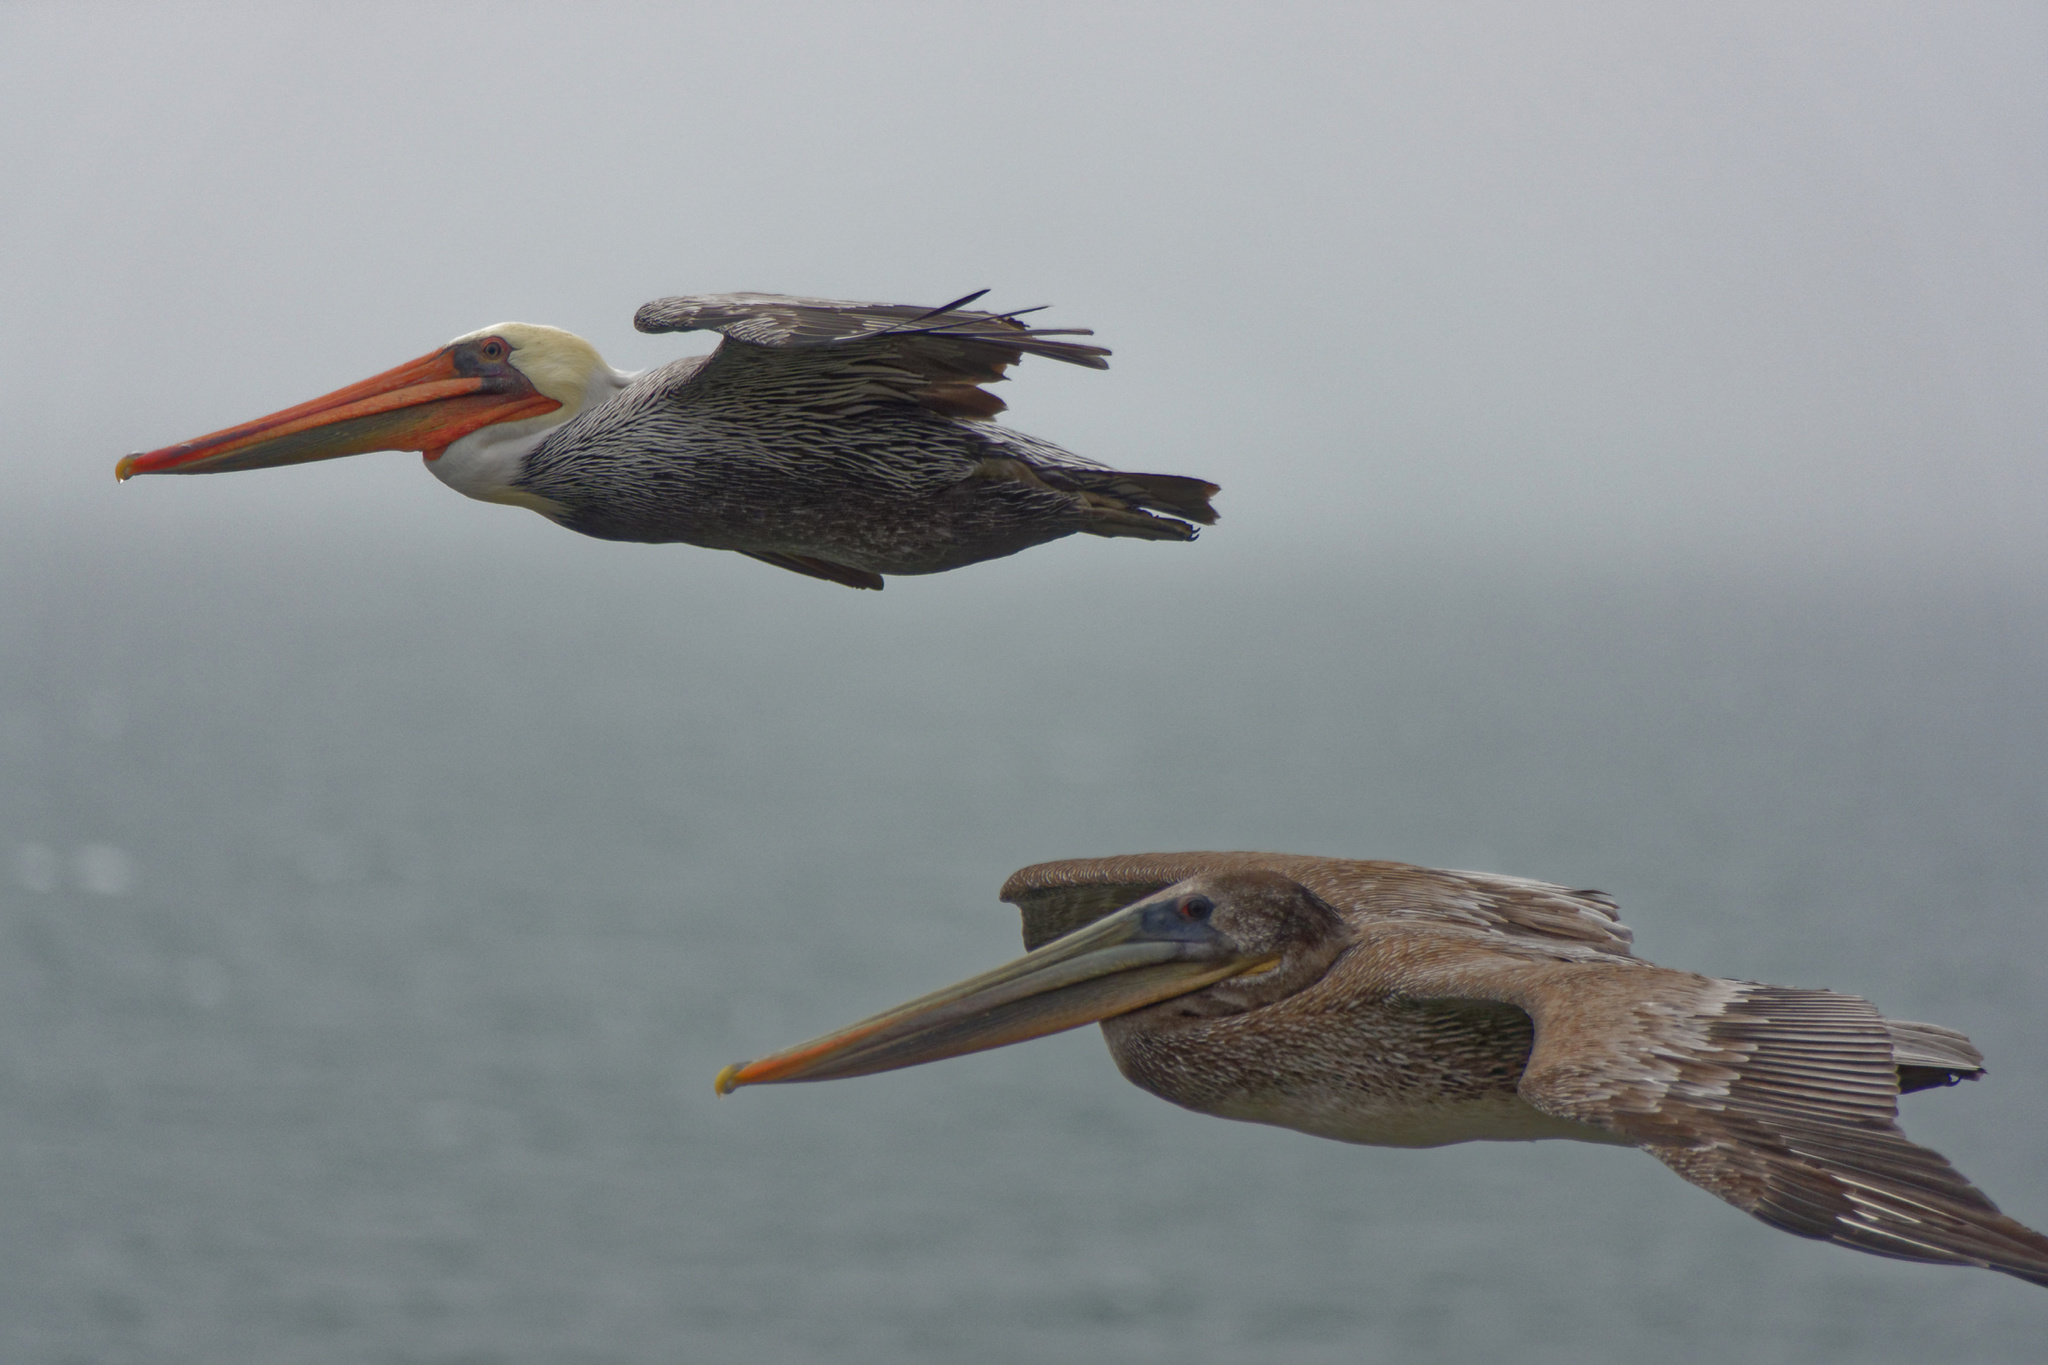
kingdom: Animalia
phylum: Chordata
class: Aves
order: Pelecaniformes
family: Pelecanidae
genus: Pelecanus
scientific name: Pelecanus occidentalis
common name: Brown pelican
